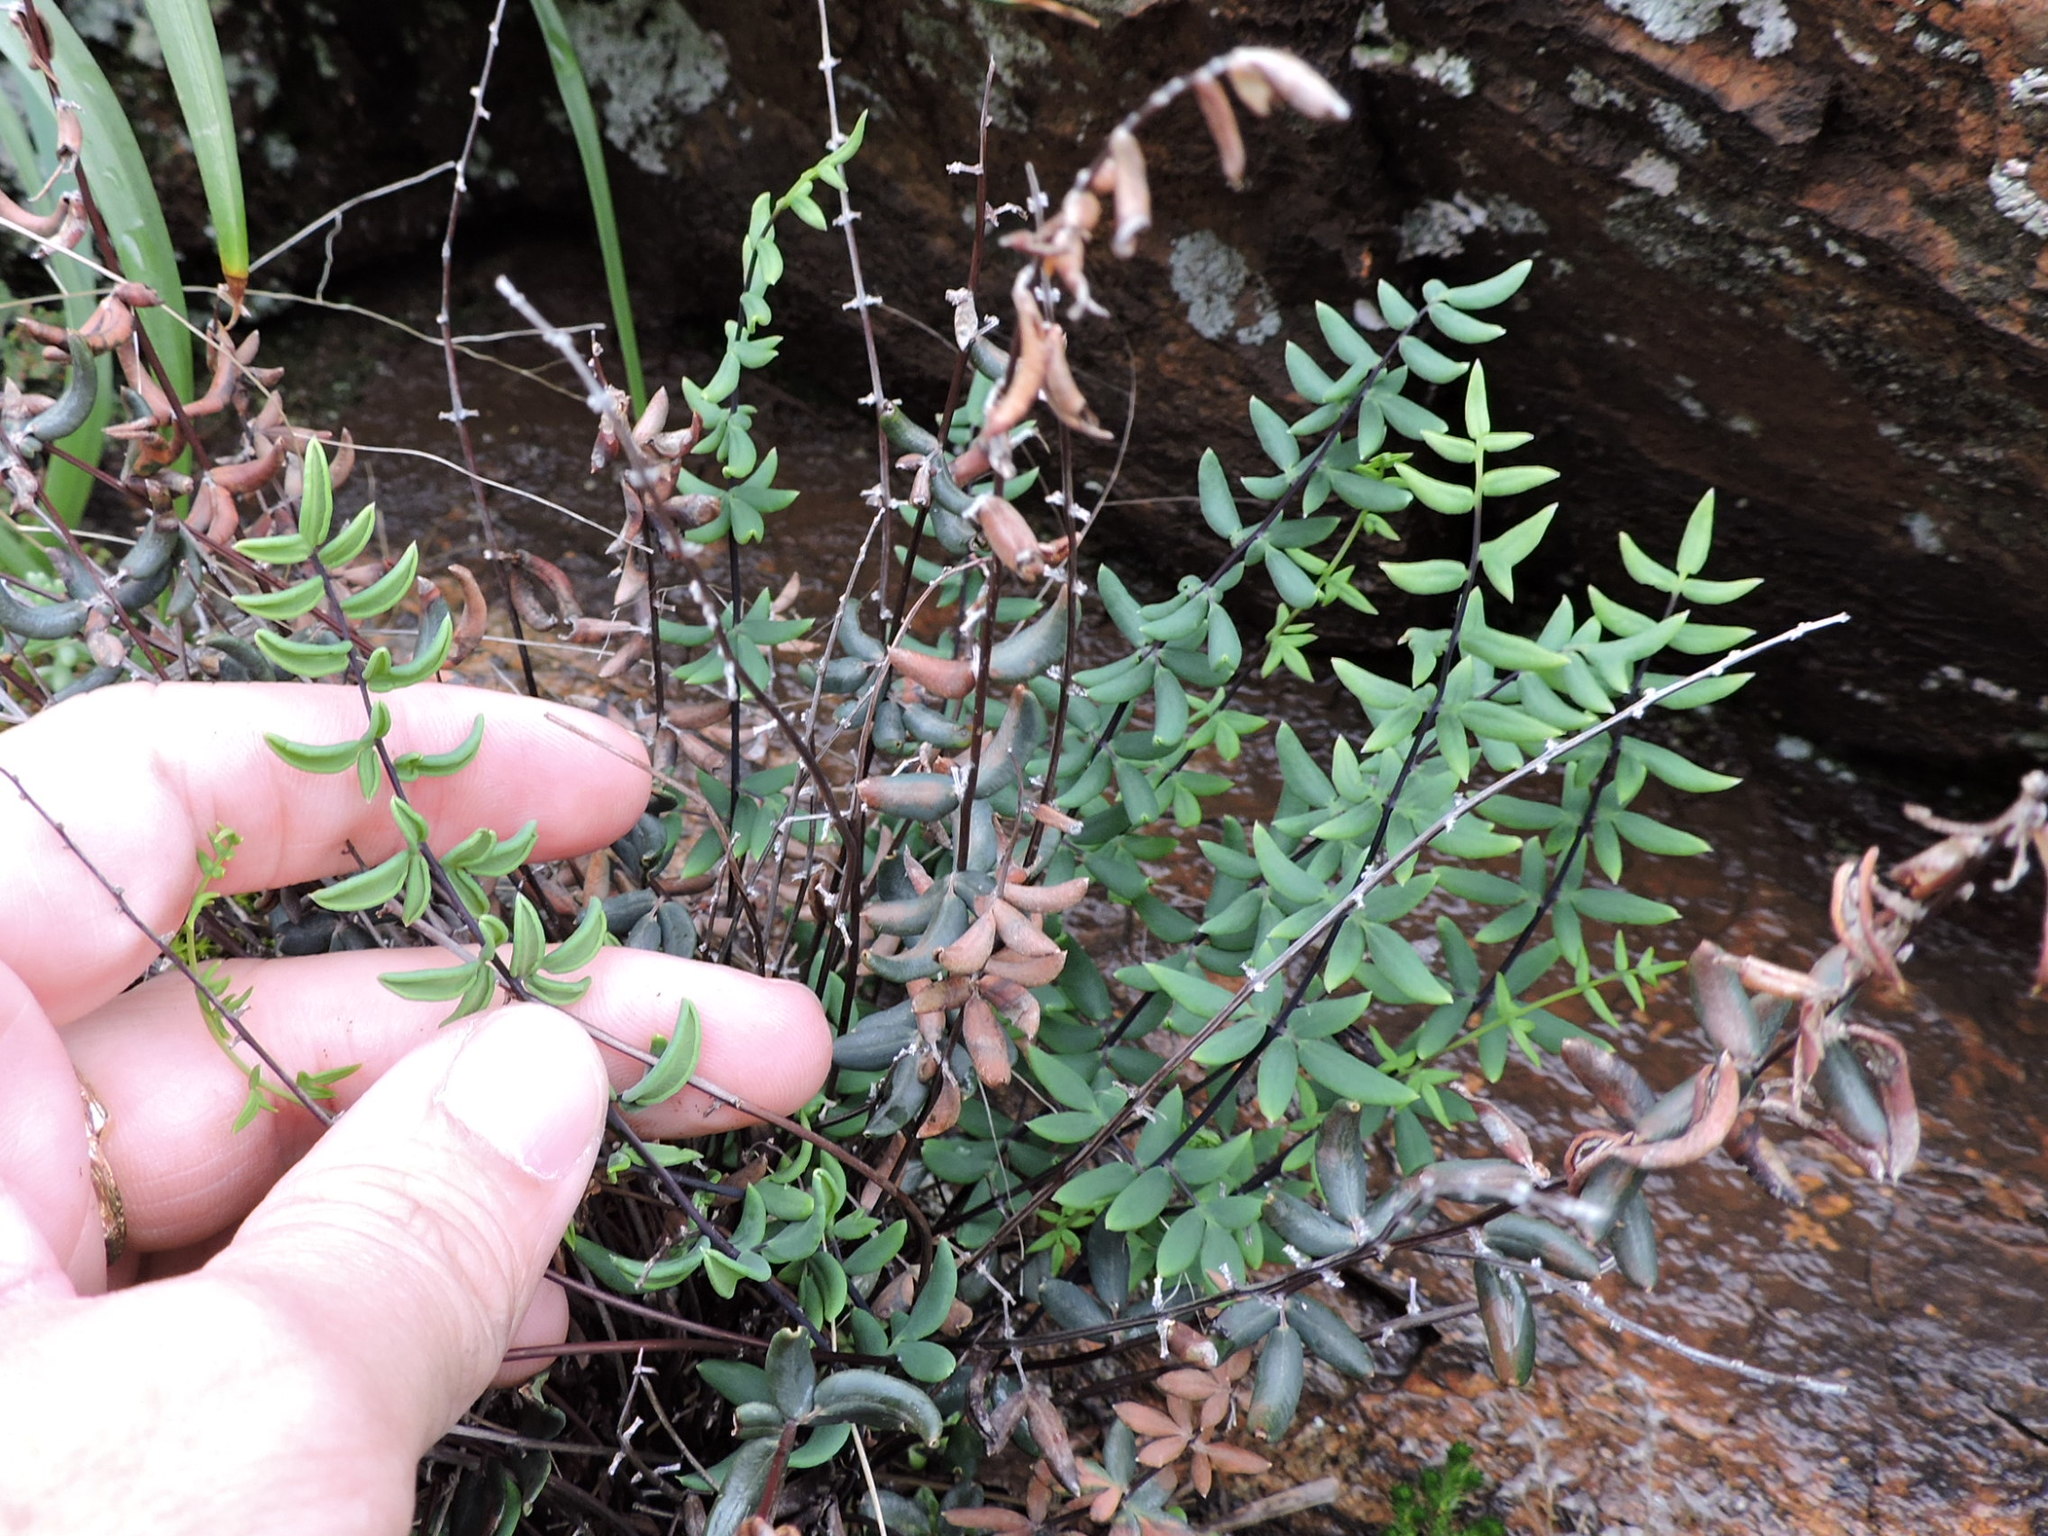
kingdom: Plantae
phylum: Tracheophyta
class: Polypodiopsida
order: Polypodiales
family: Pteridaceae
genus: Pellaea
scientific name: Pellaea wrightiana
